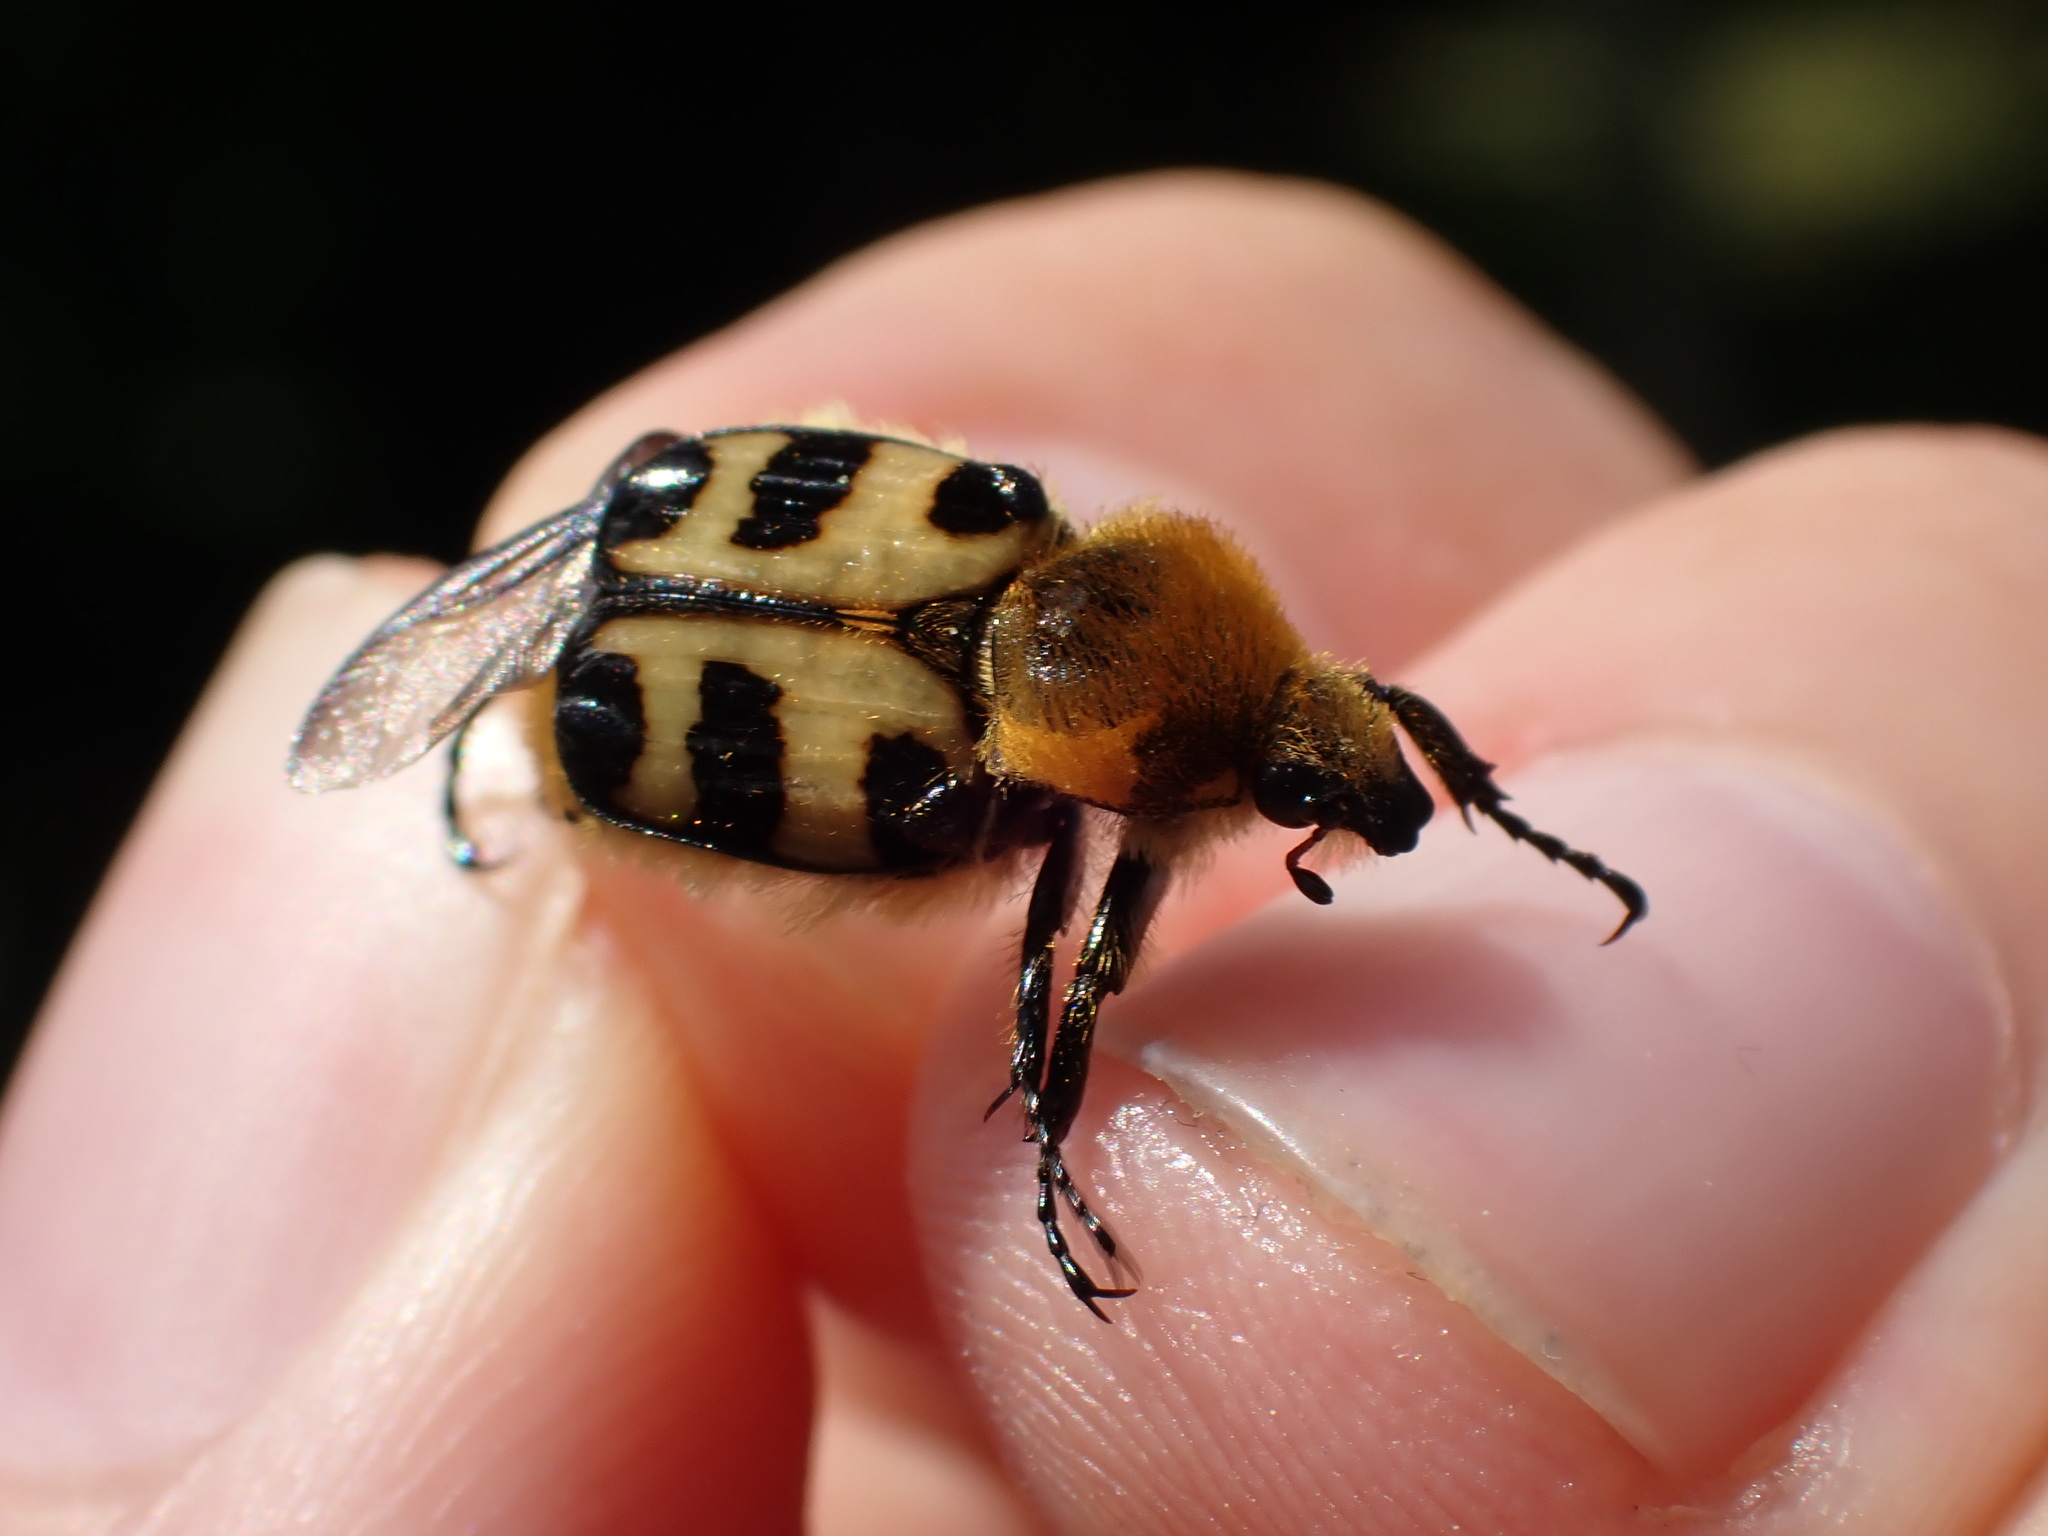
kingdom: Animalia
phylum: Arthropoda
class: Insecta
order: Coleoptera
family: Scarabaeidae
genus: Trichius
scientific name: Trichius gallicus
